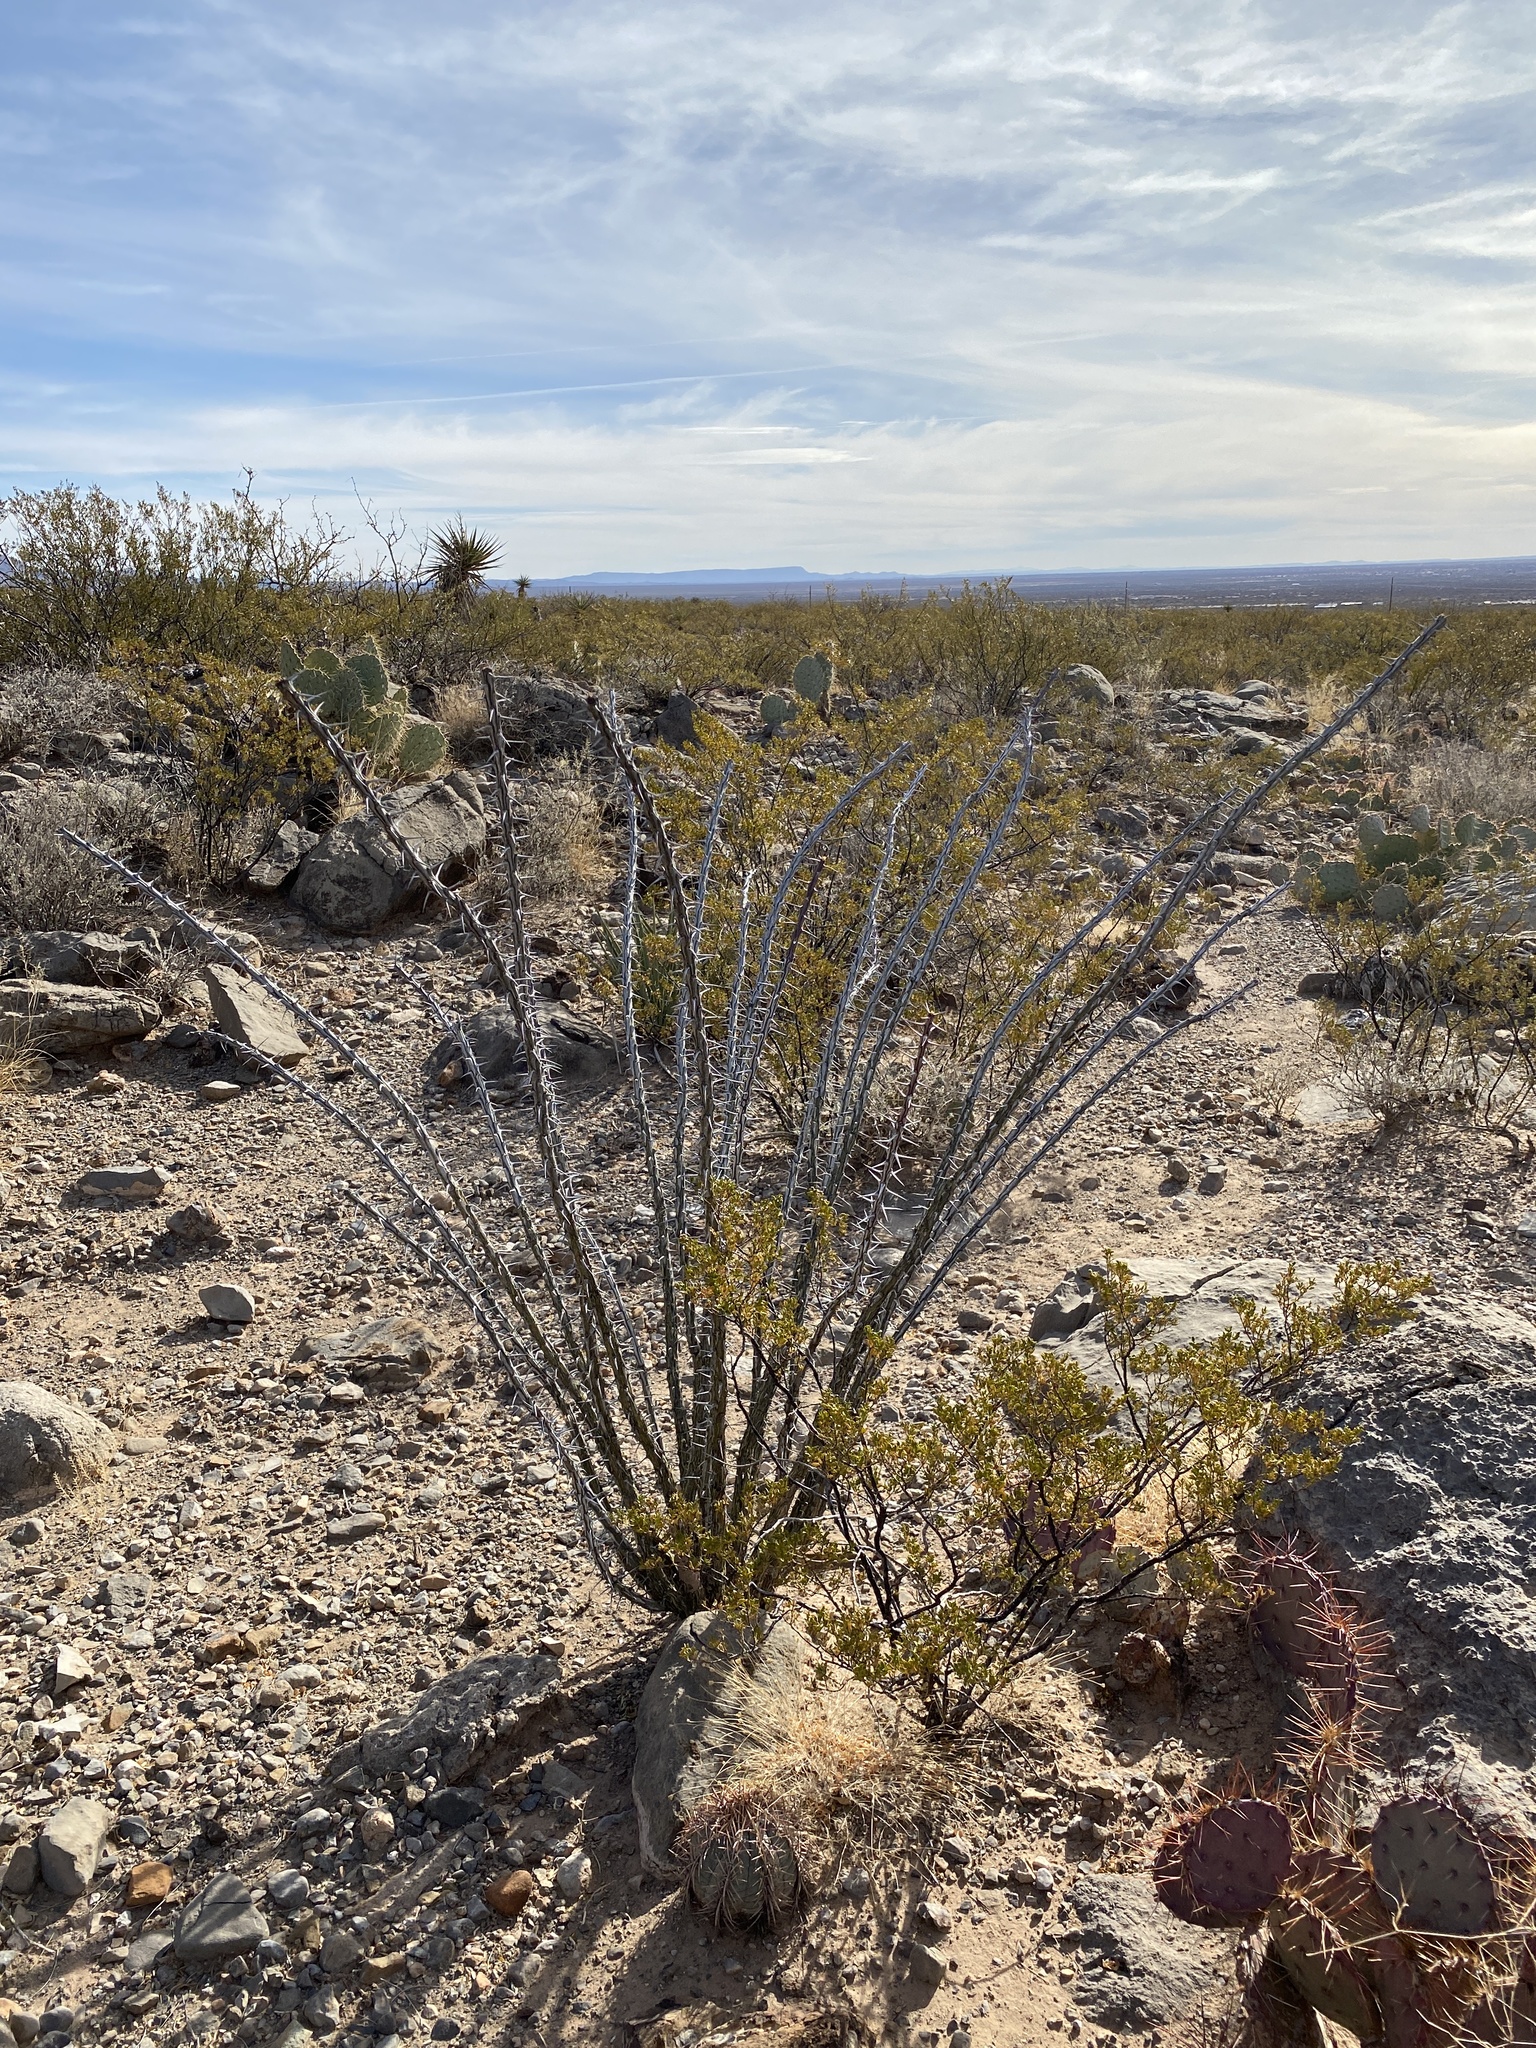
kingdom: Plantae
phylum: Tracheophyta
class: Magnoliopsida
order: Ericales
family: Fouquieriaceae
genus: Fouquieria
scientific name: Fouquieria splendens
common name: Vine-cactus
